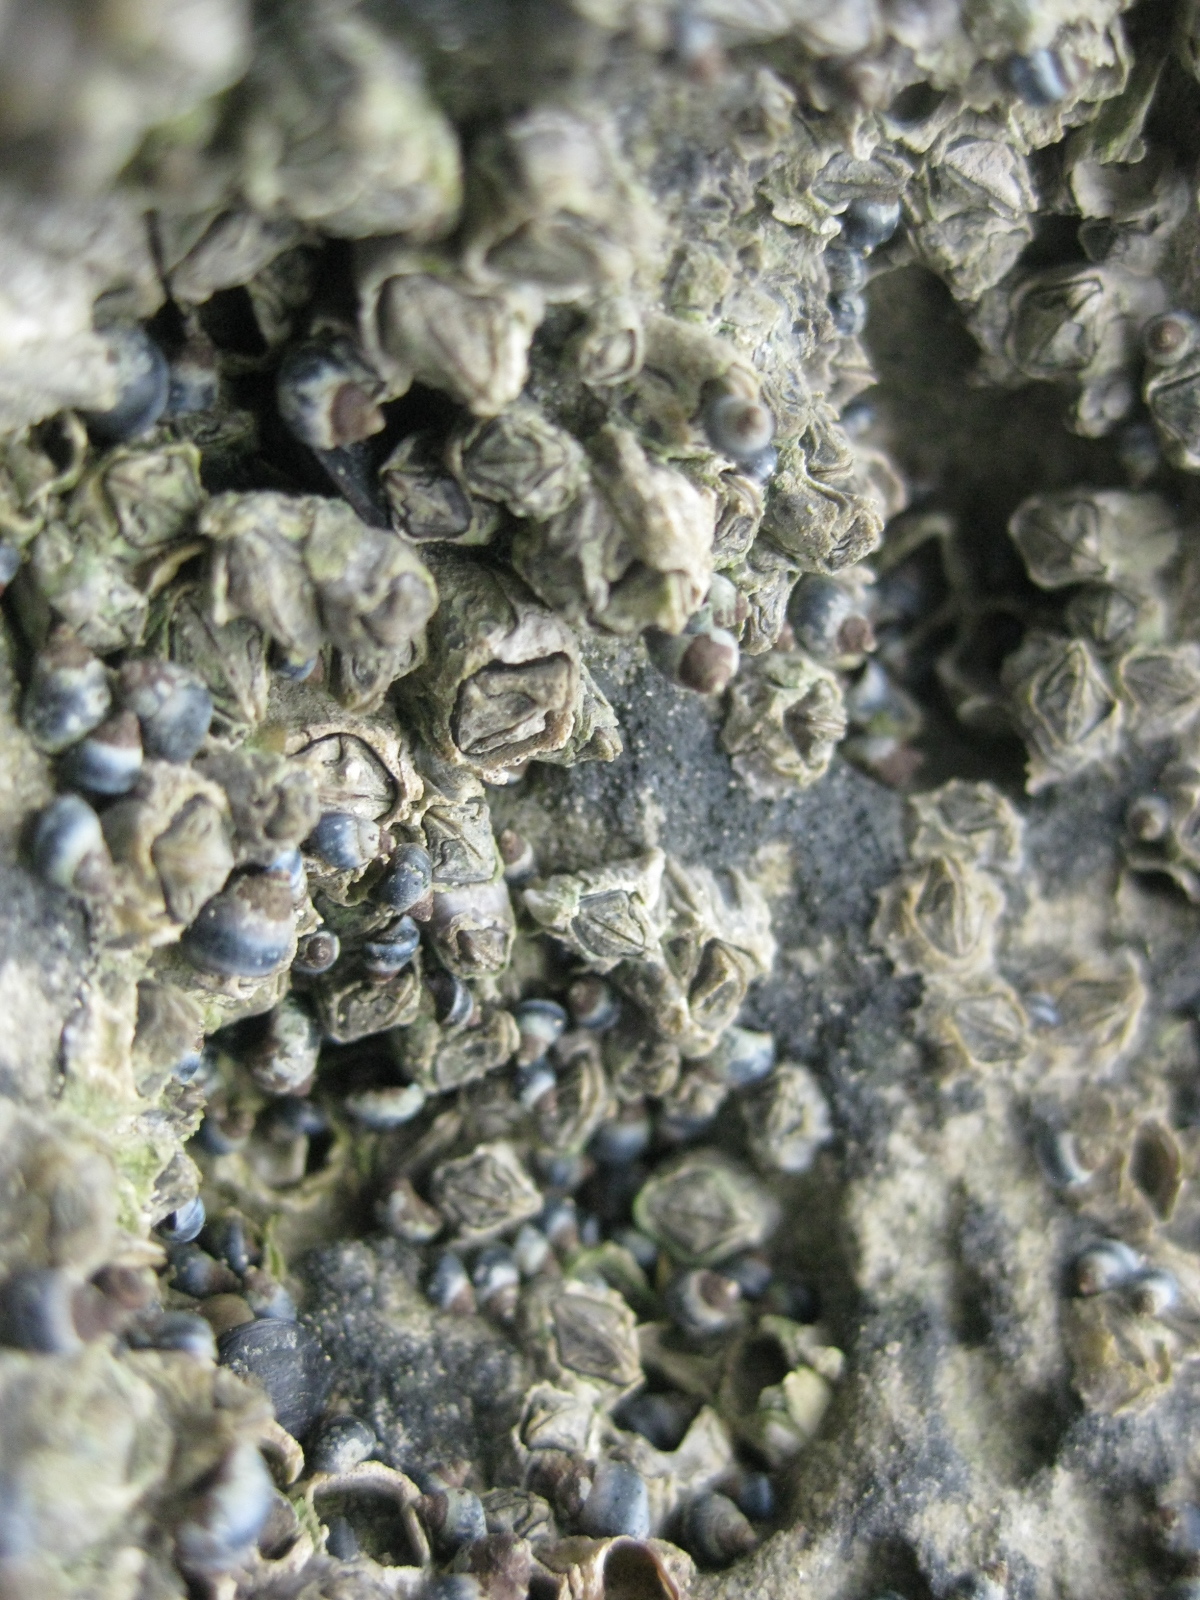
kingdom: Animalia
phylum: Mollusca
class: Gastropoda
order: Littorinimorpha
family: Littorinidae
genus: Austrolittorina
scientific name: Austrolittorina antipodum
